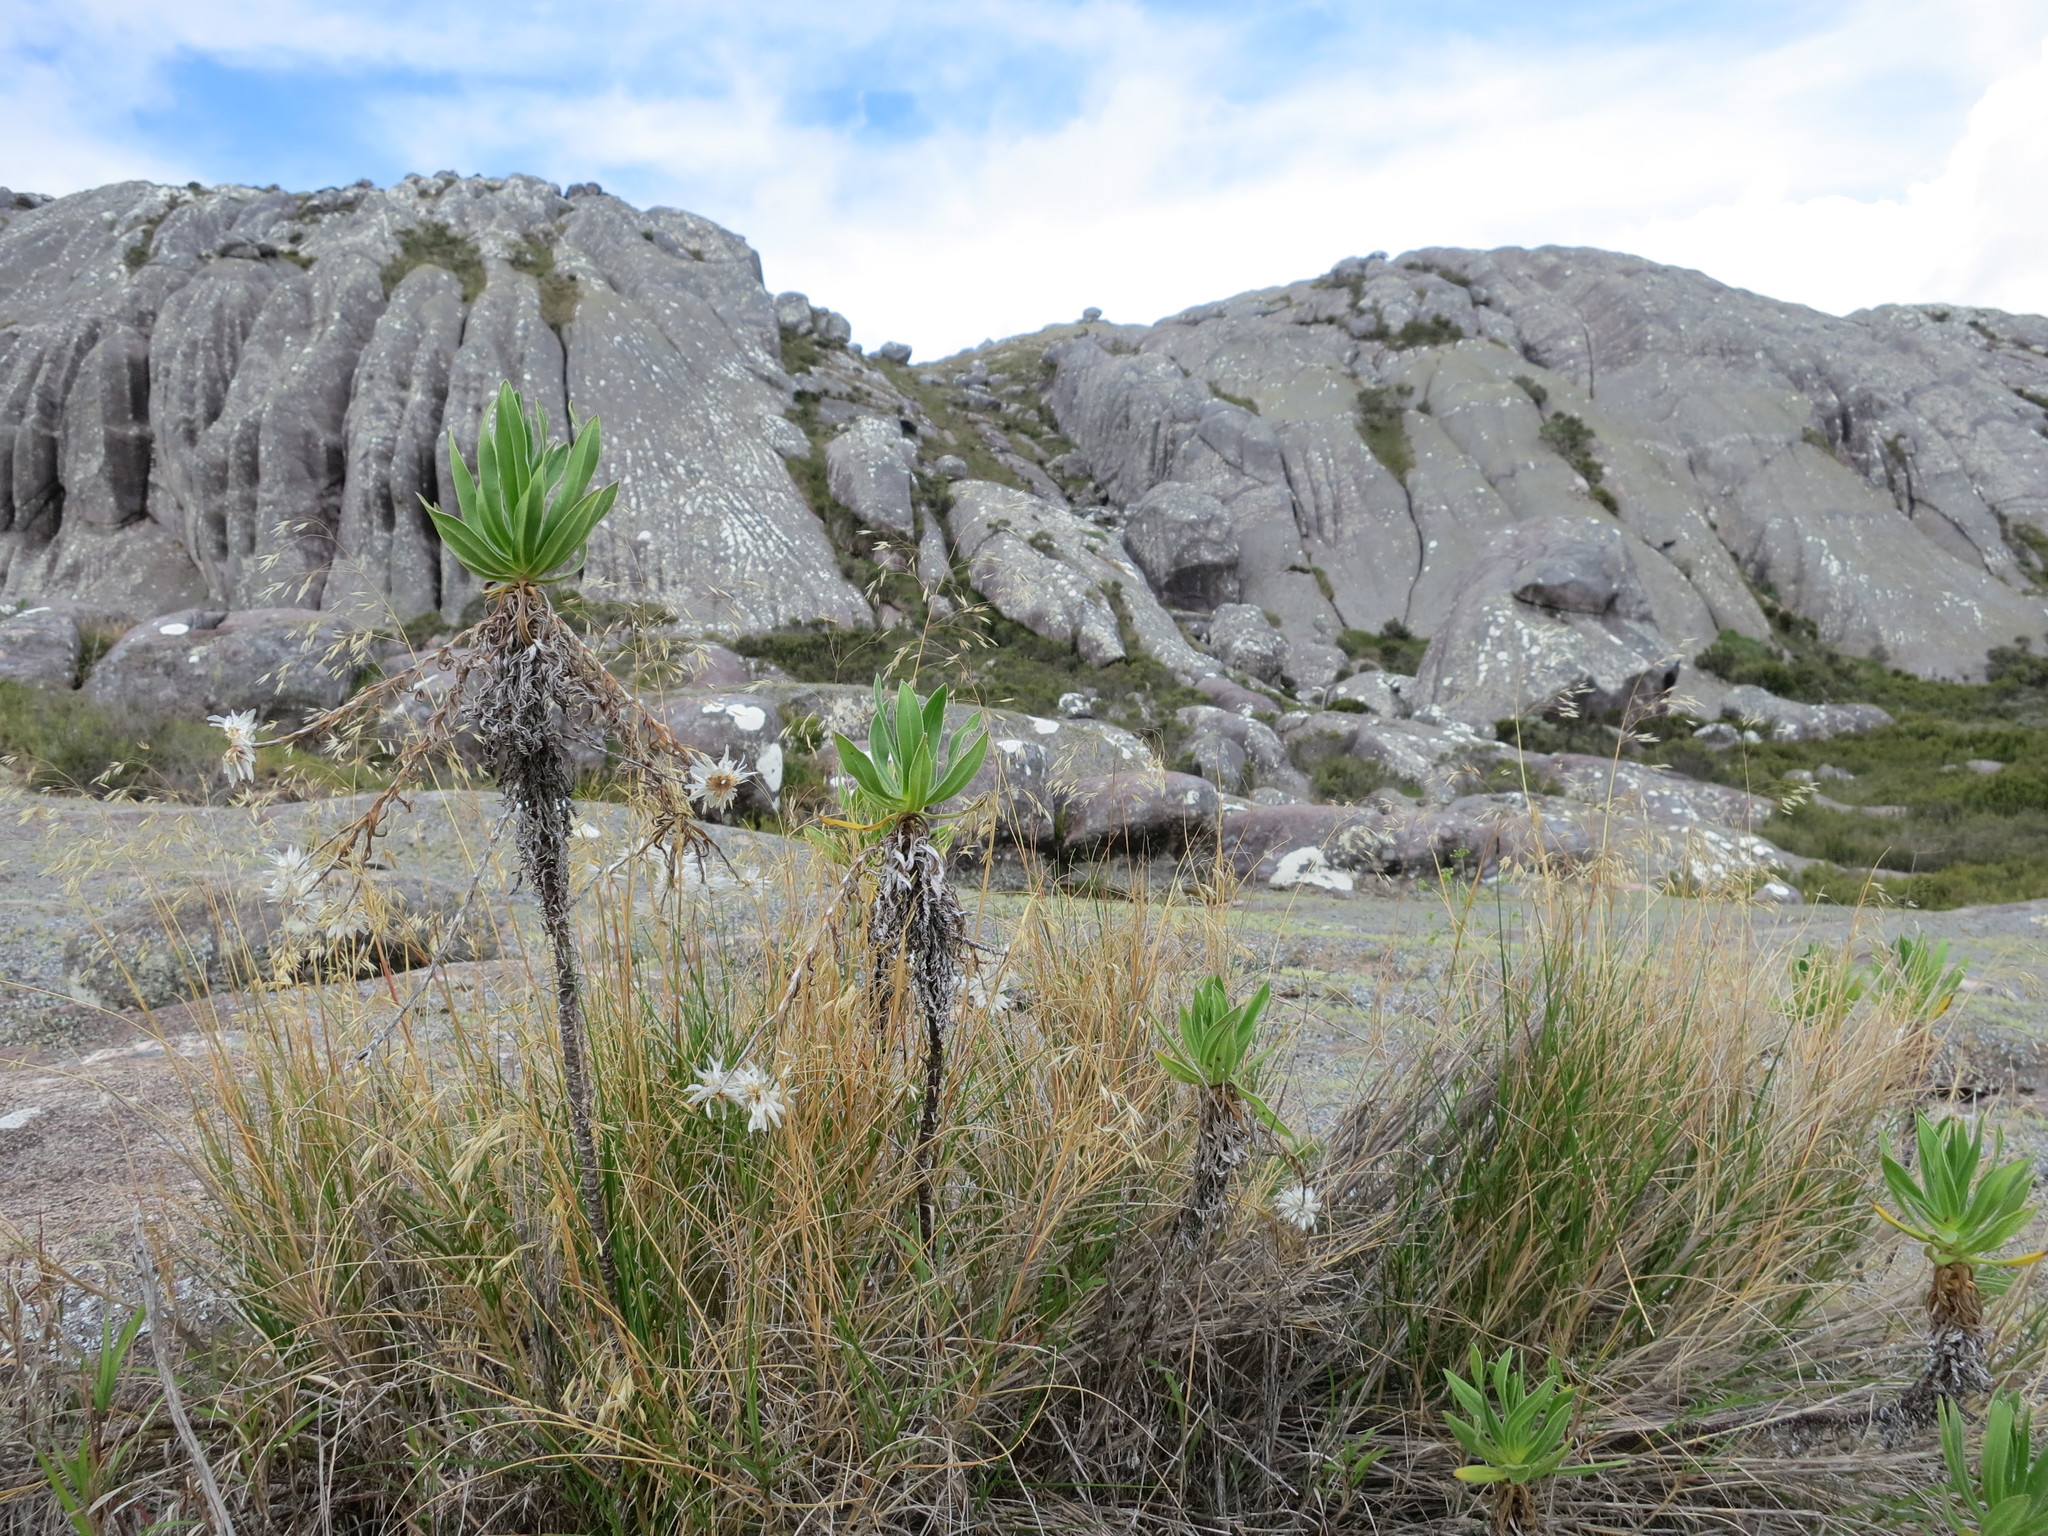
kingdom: Plantae
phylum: Tracheophyta
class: Liliopsida
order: Poales
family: Poaceae
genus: Pentameris
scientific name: Pentameris andringitrensis
